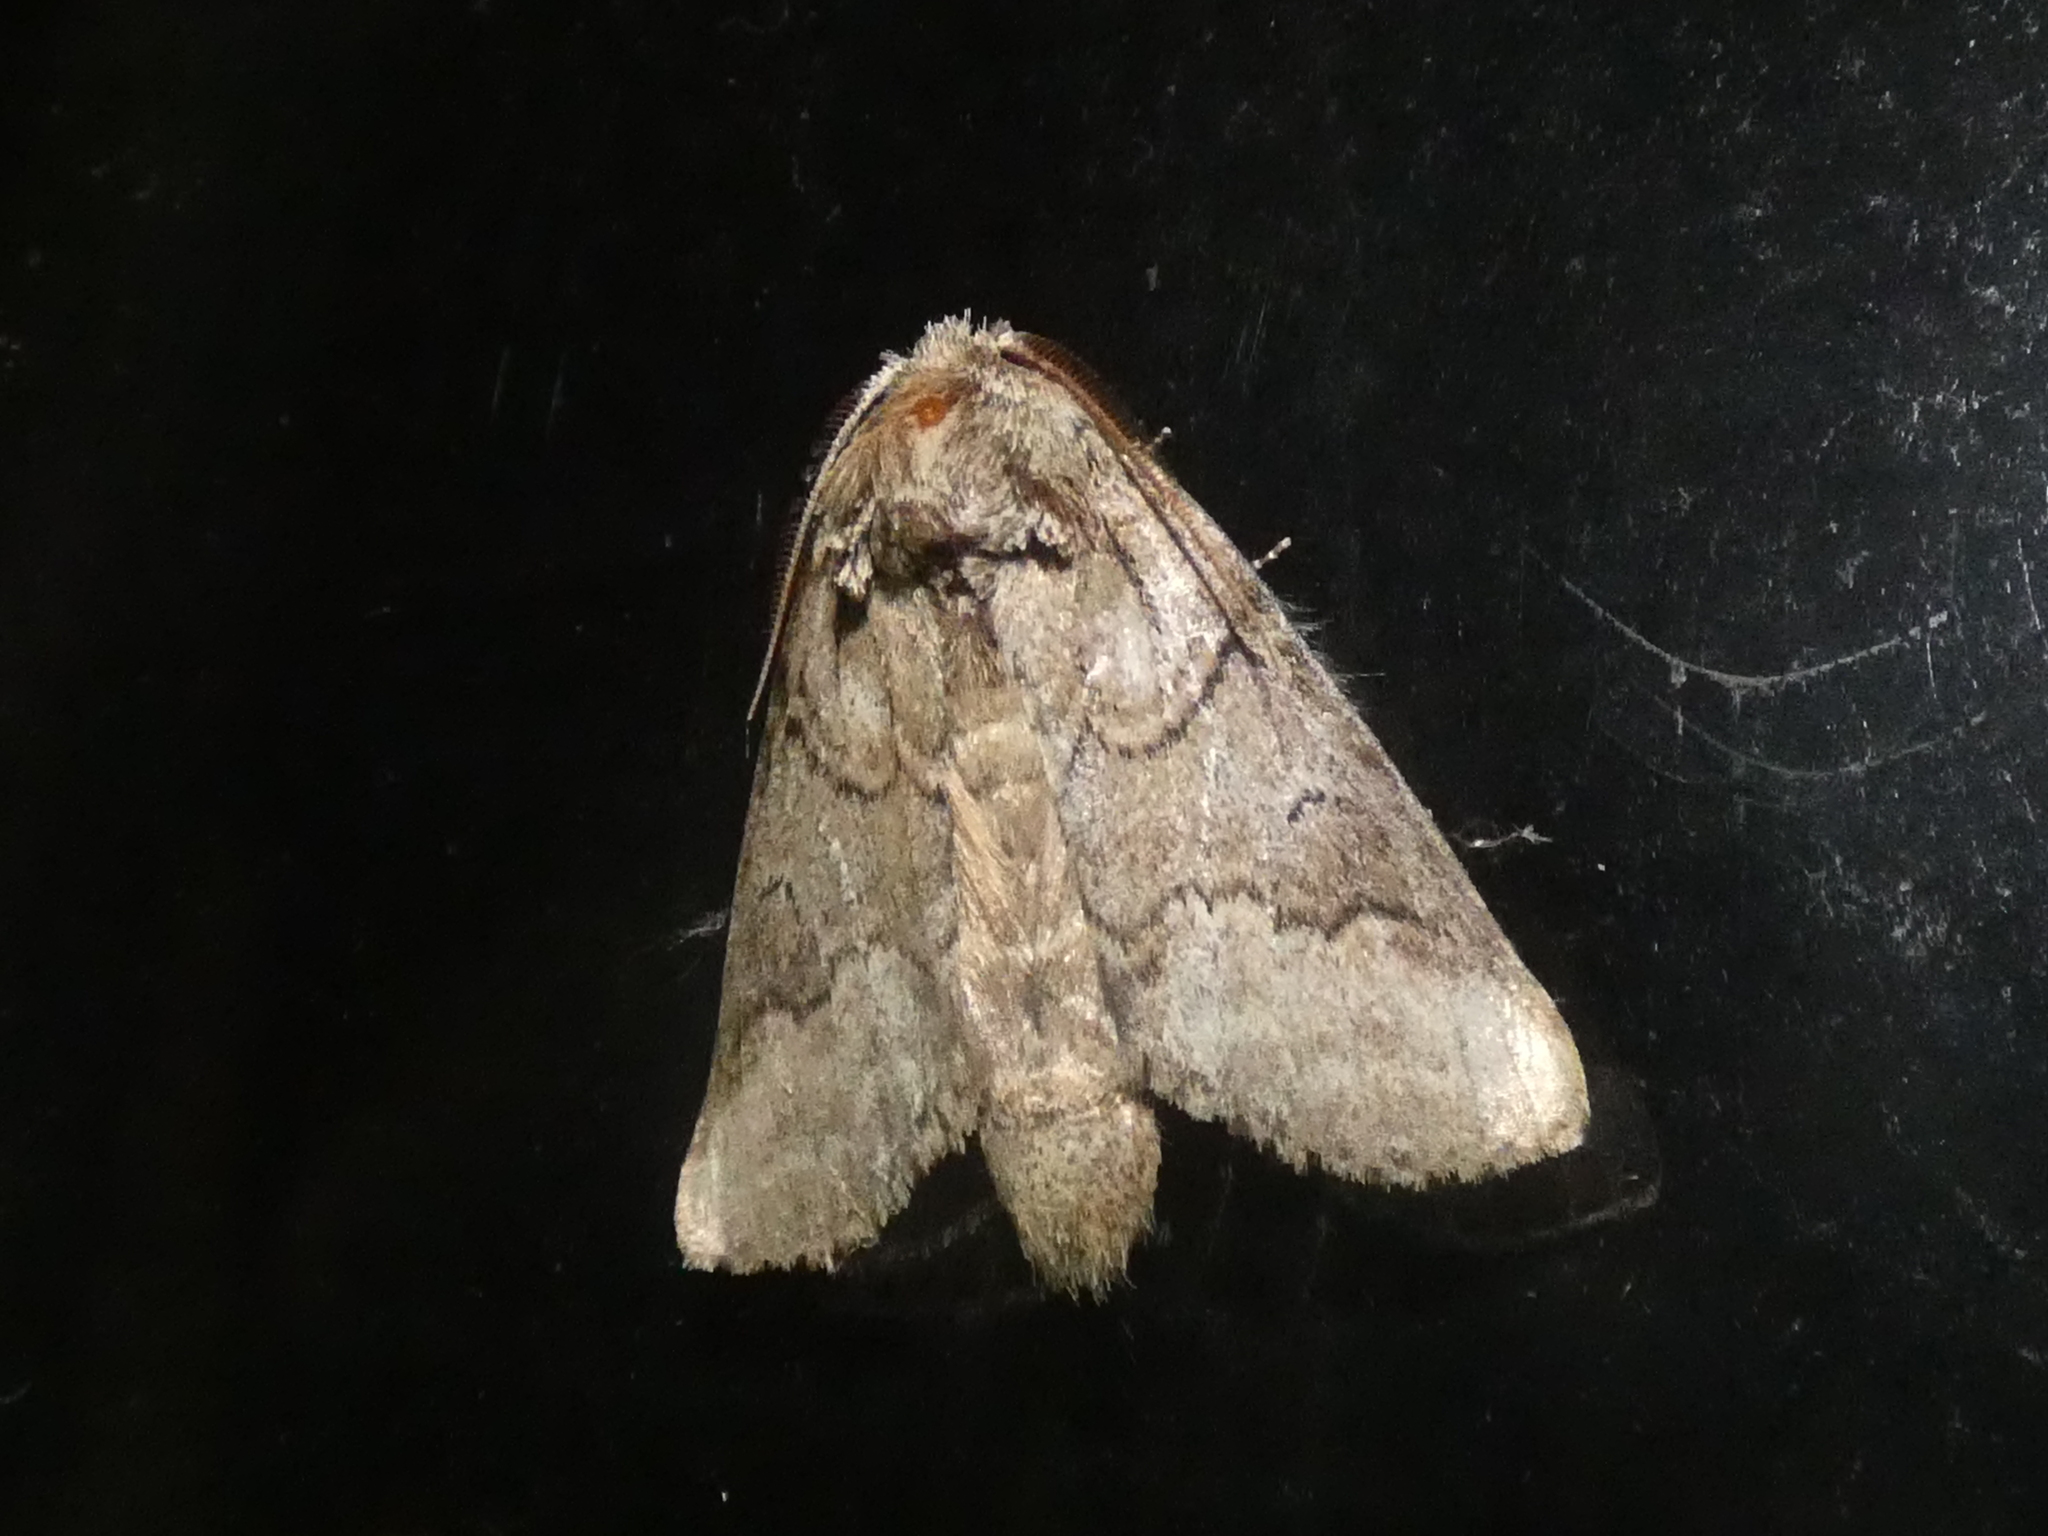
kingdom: Animalia
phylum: Arthropoda
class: Insecta
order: Lepidoptera
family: Notodontidae
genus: Lochmaeus
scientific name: Lochmaeus bilineata
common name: Double-lined prominent
